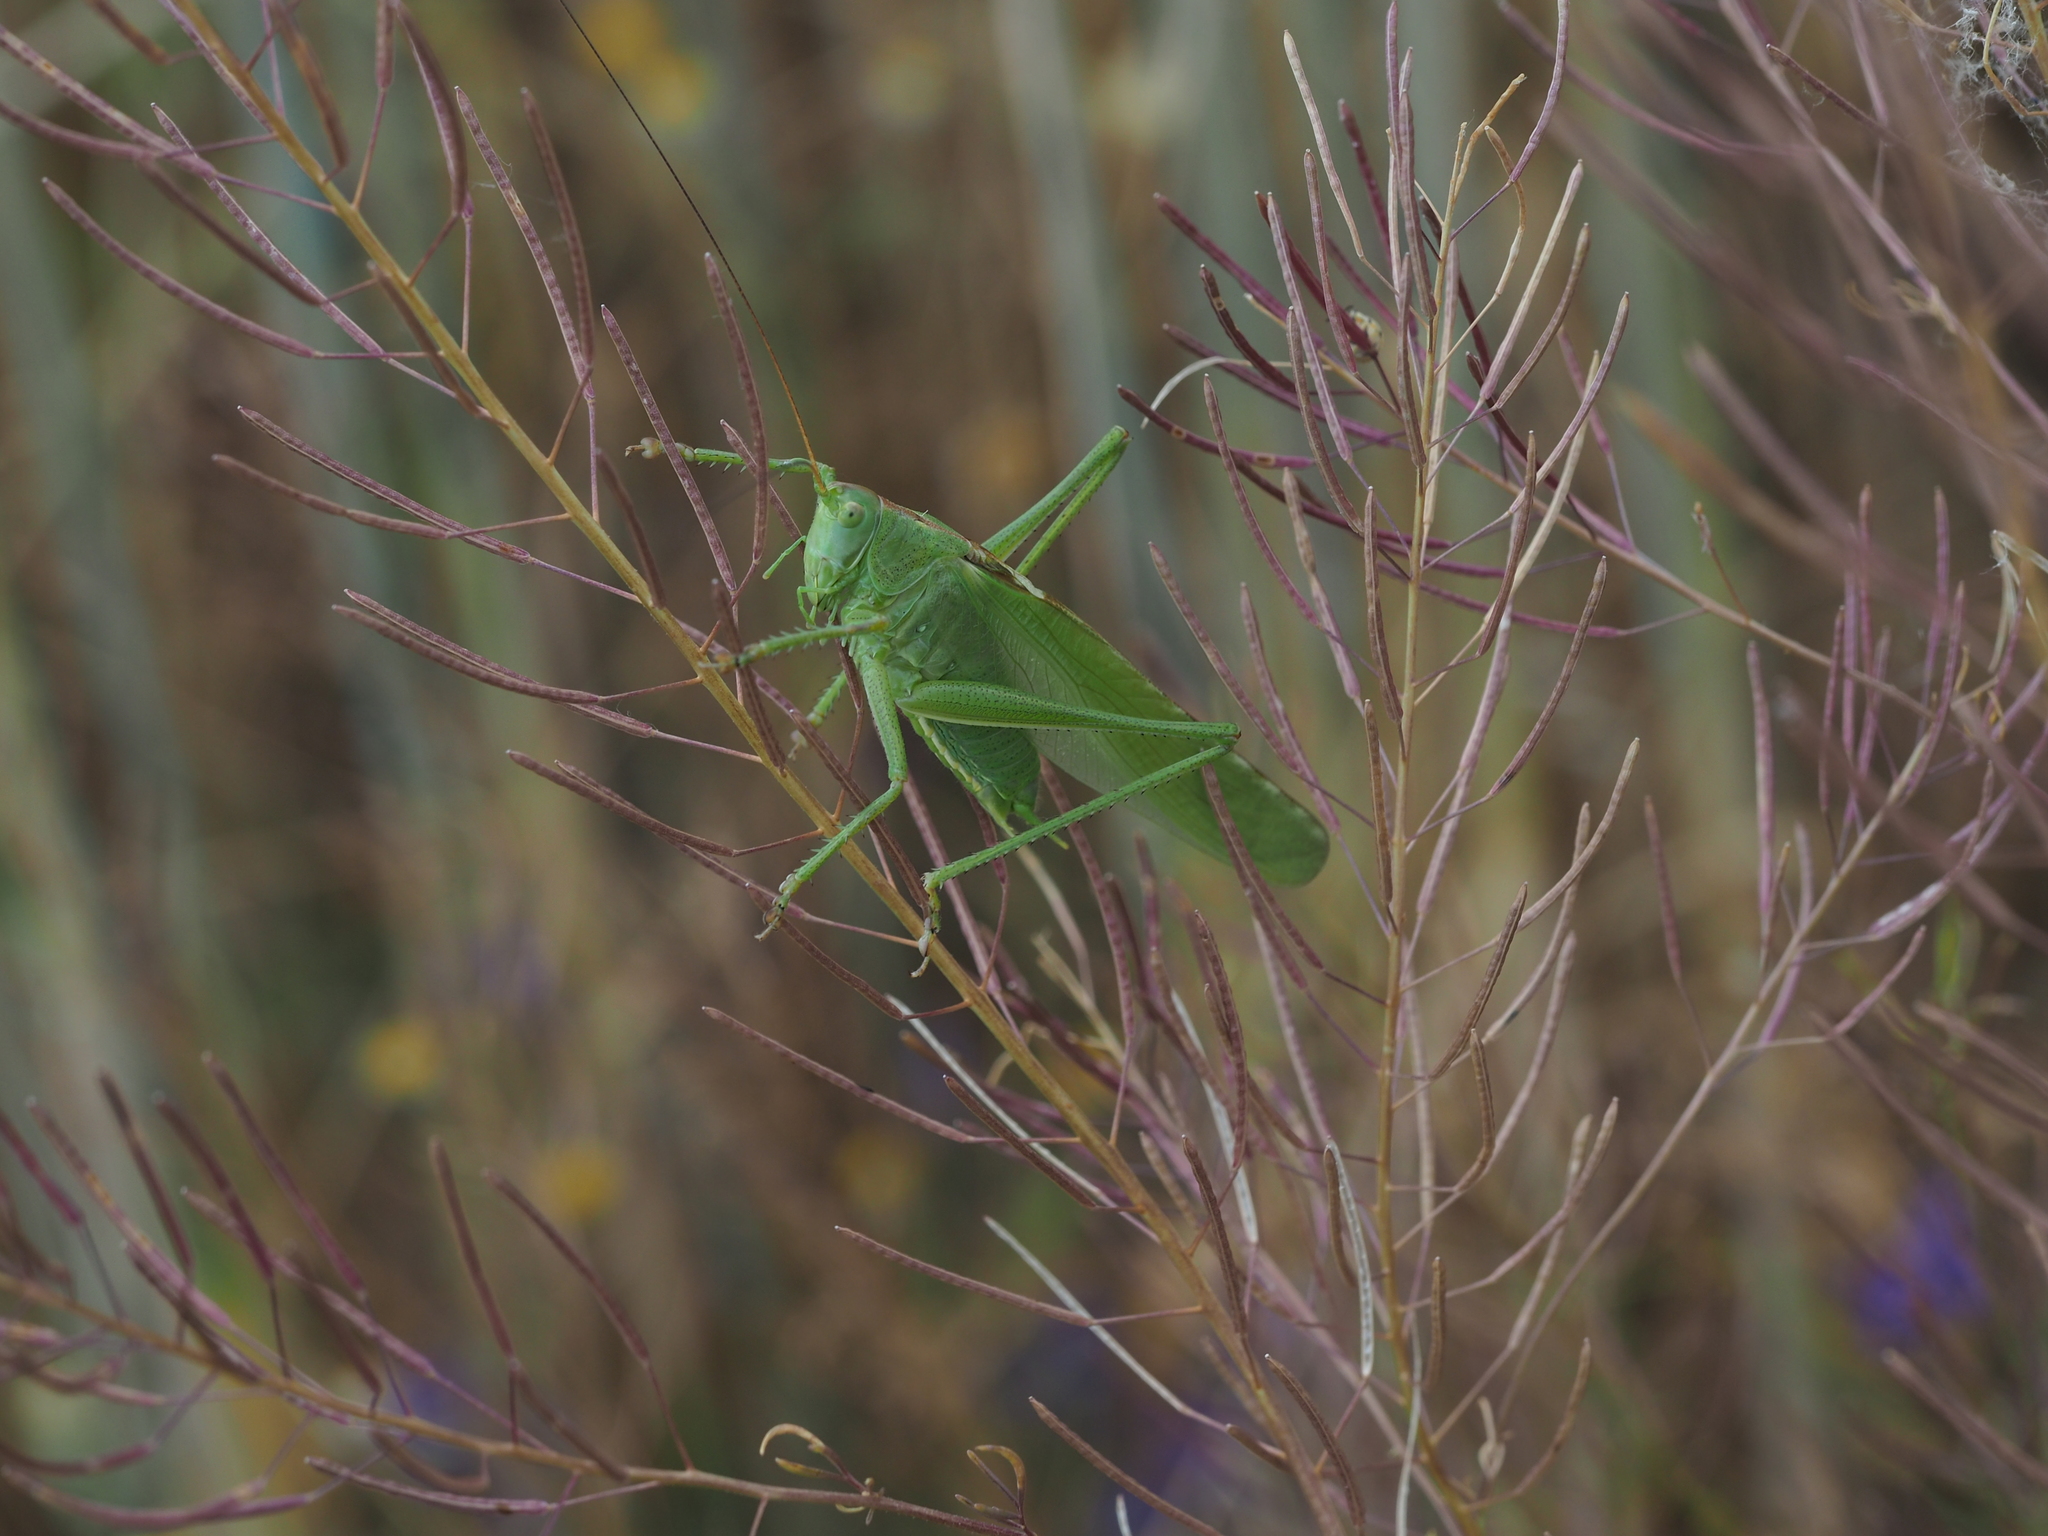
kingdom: Animalia
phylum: Arthropoda
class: Insecta
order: Orthoptera
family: Tettigoniidae
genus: Tettigonia
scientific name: Tettigonia viridissima
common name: Great green bush-cricket
